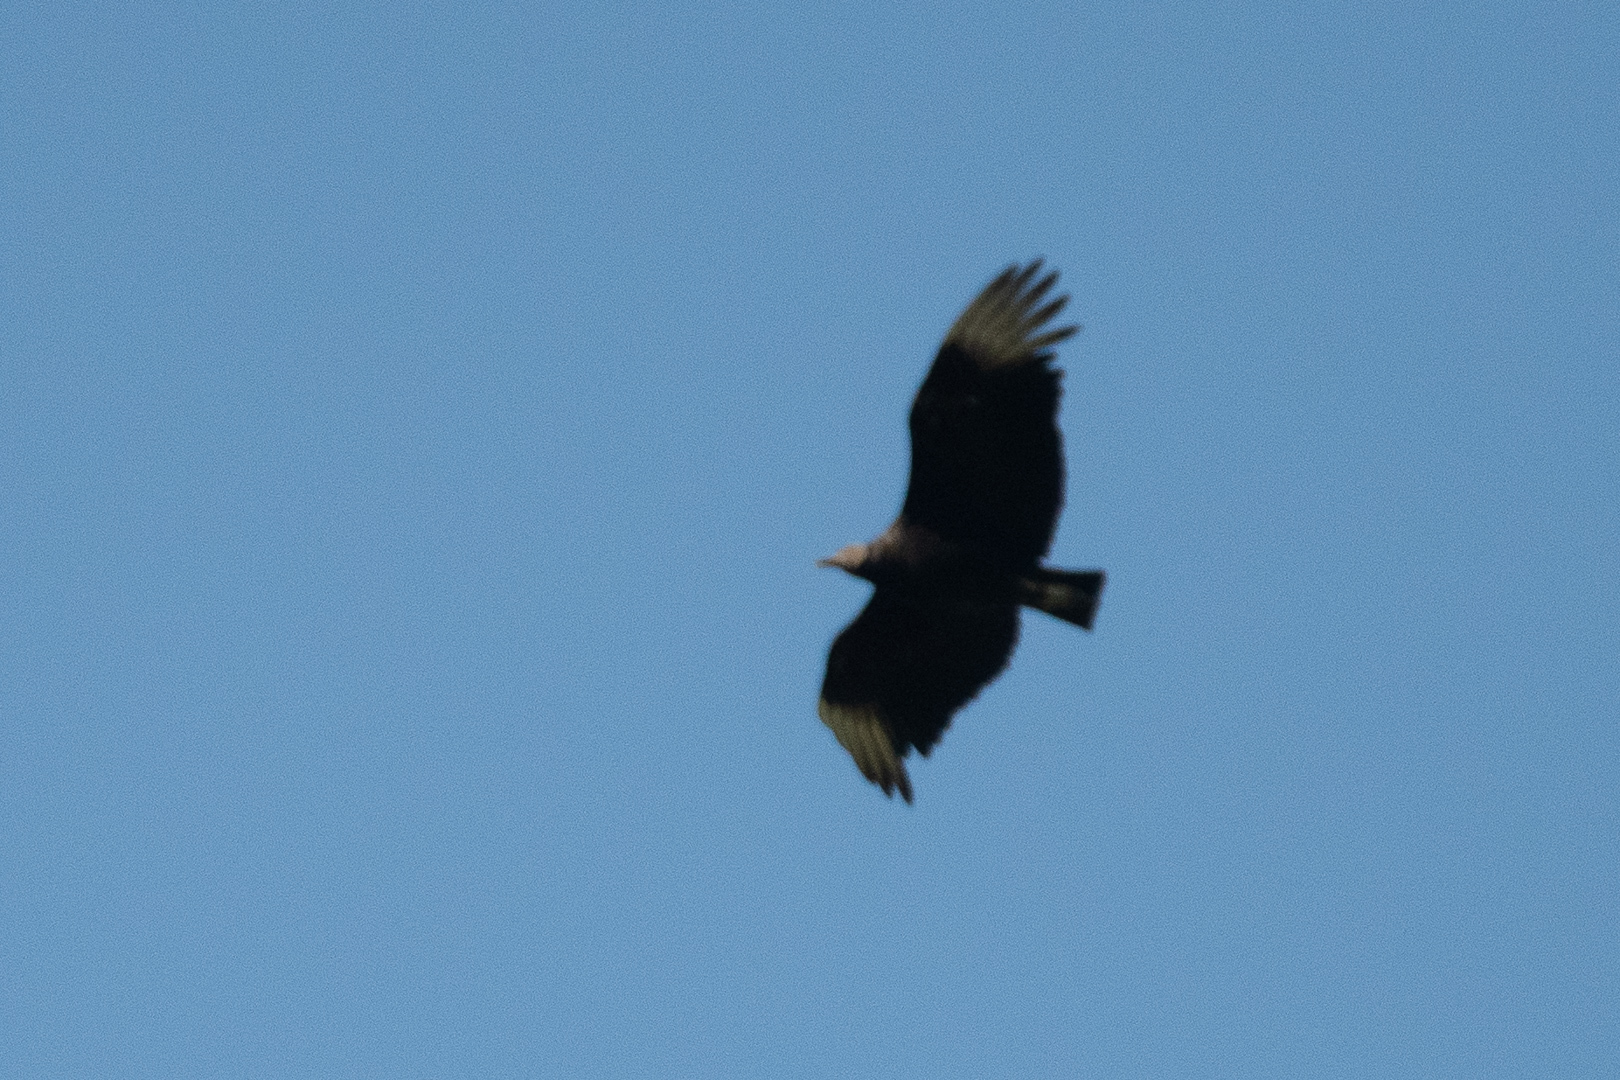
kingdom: Animalia
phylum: Chordata
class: Aves
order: Accipitriformes
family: Cathartidae
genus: Coragyps
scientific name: Coragyps atratus
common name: Black vulture
